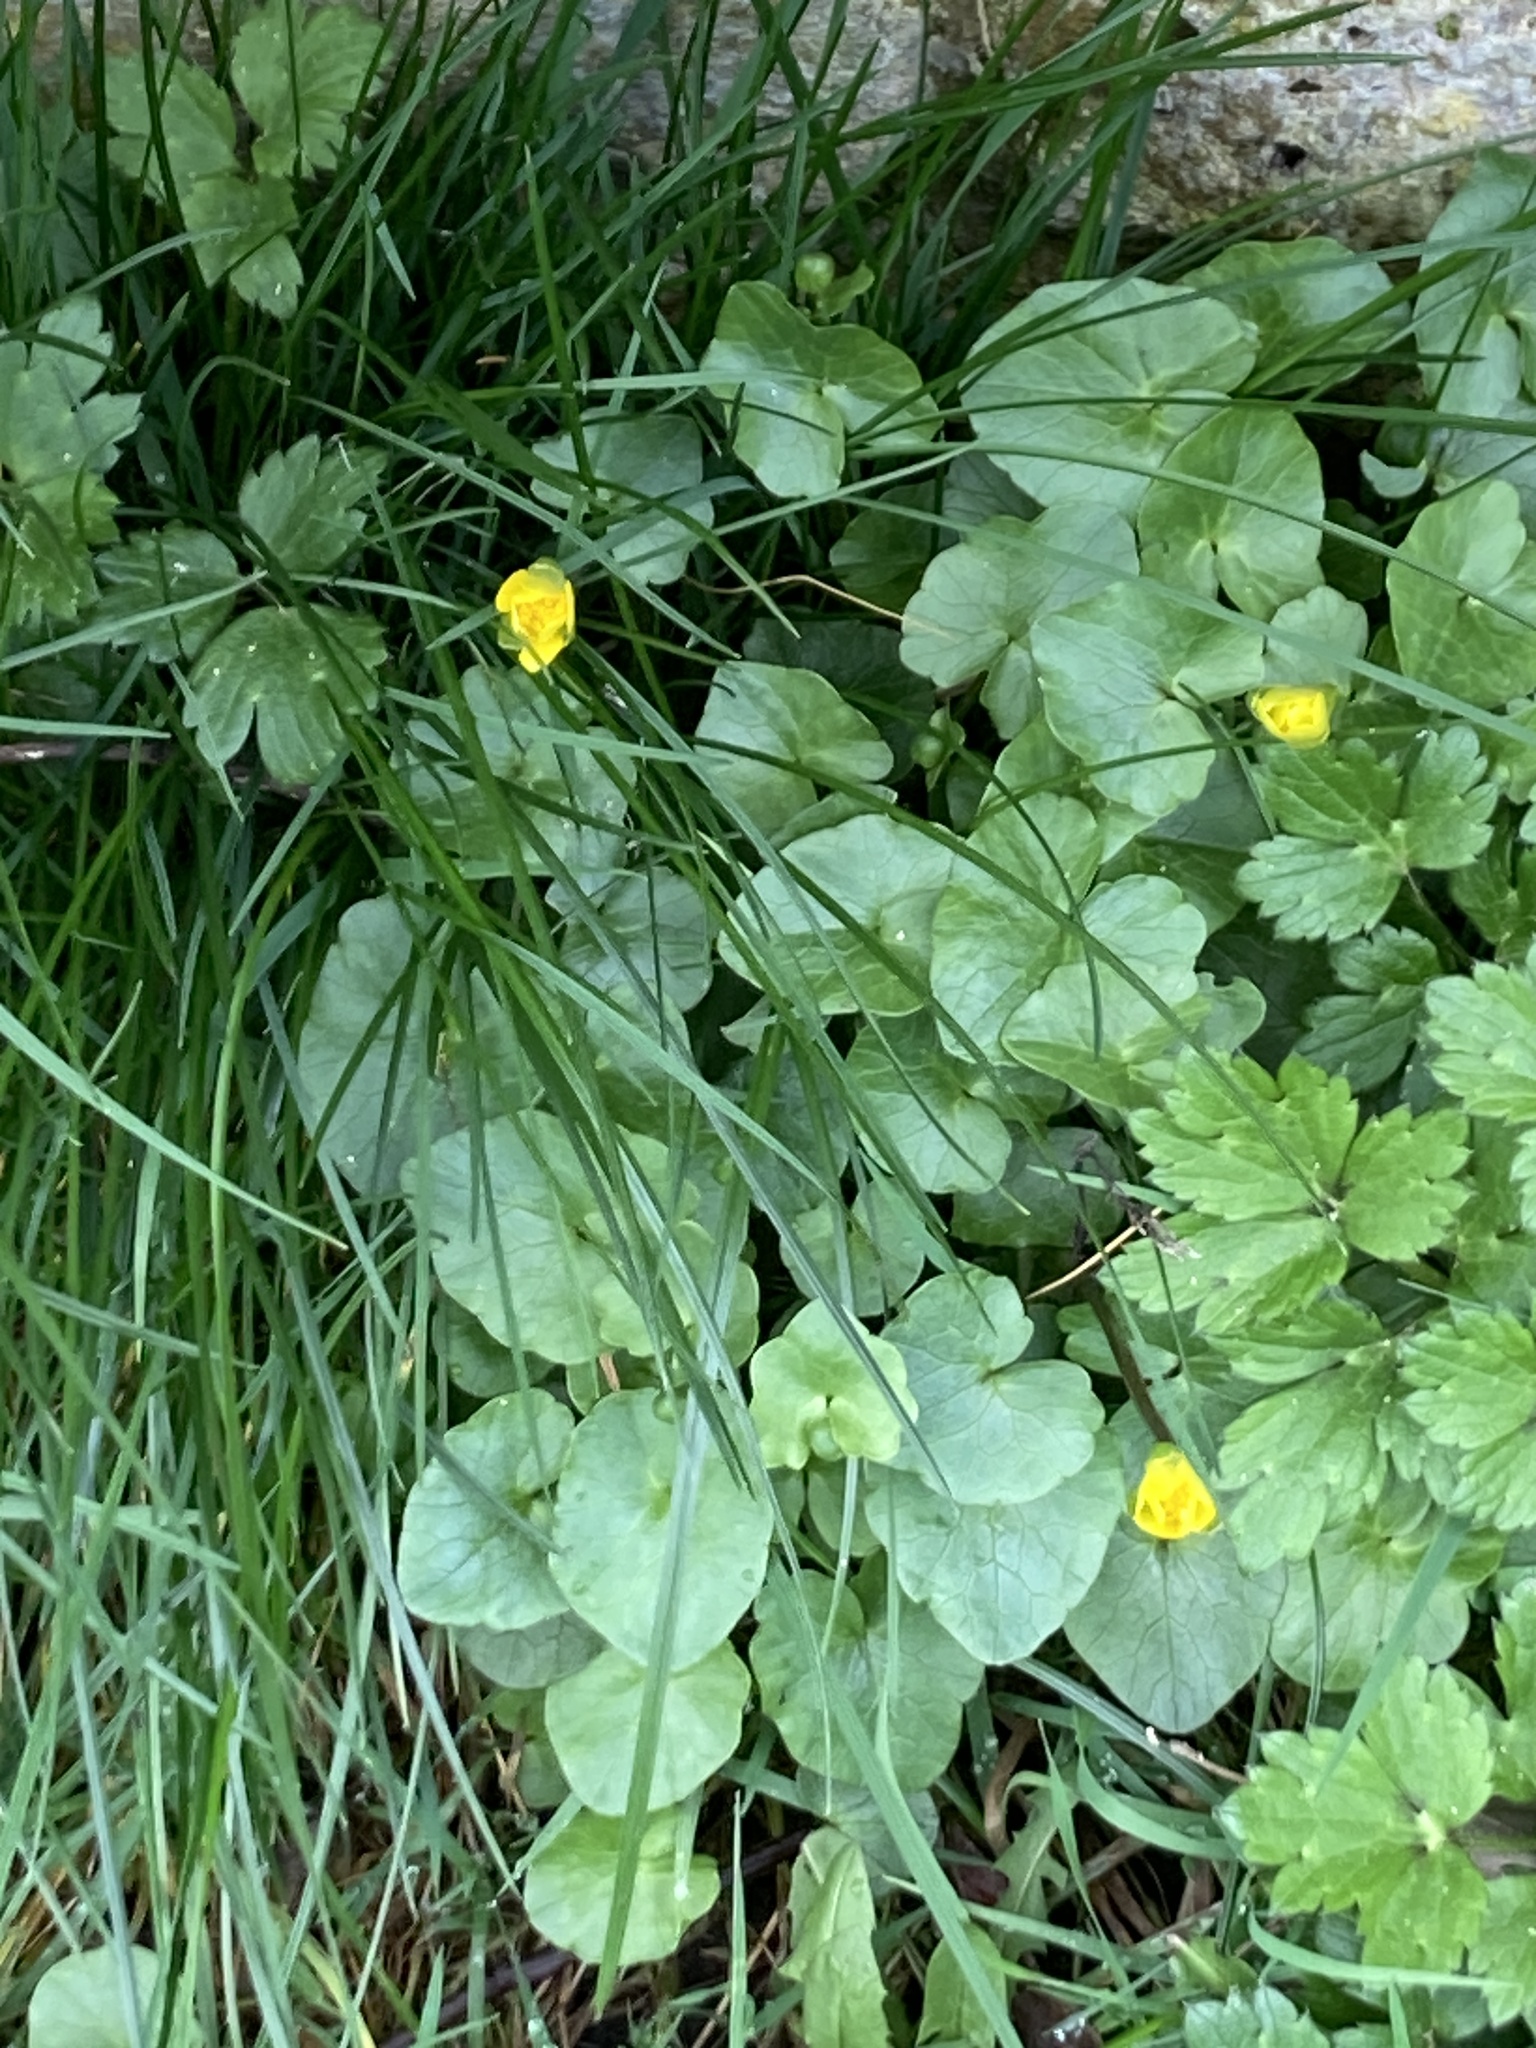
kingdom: Plantae
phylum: Tracheophyta
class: Magnoliopsida
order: Ranunculales
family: Ranunculaceae
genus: Ficaria
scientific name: Ficaria verna
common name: Lesser celandine
